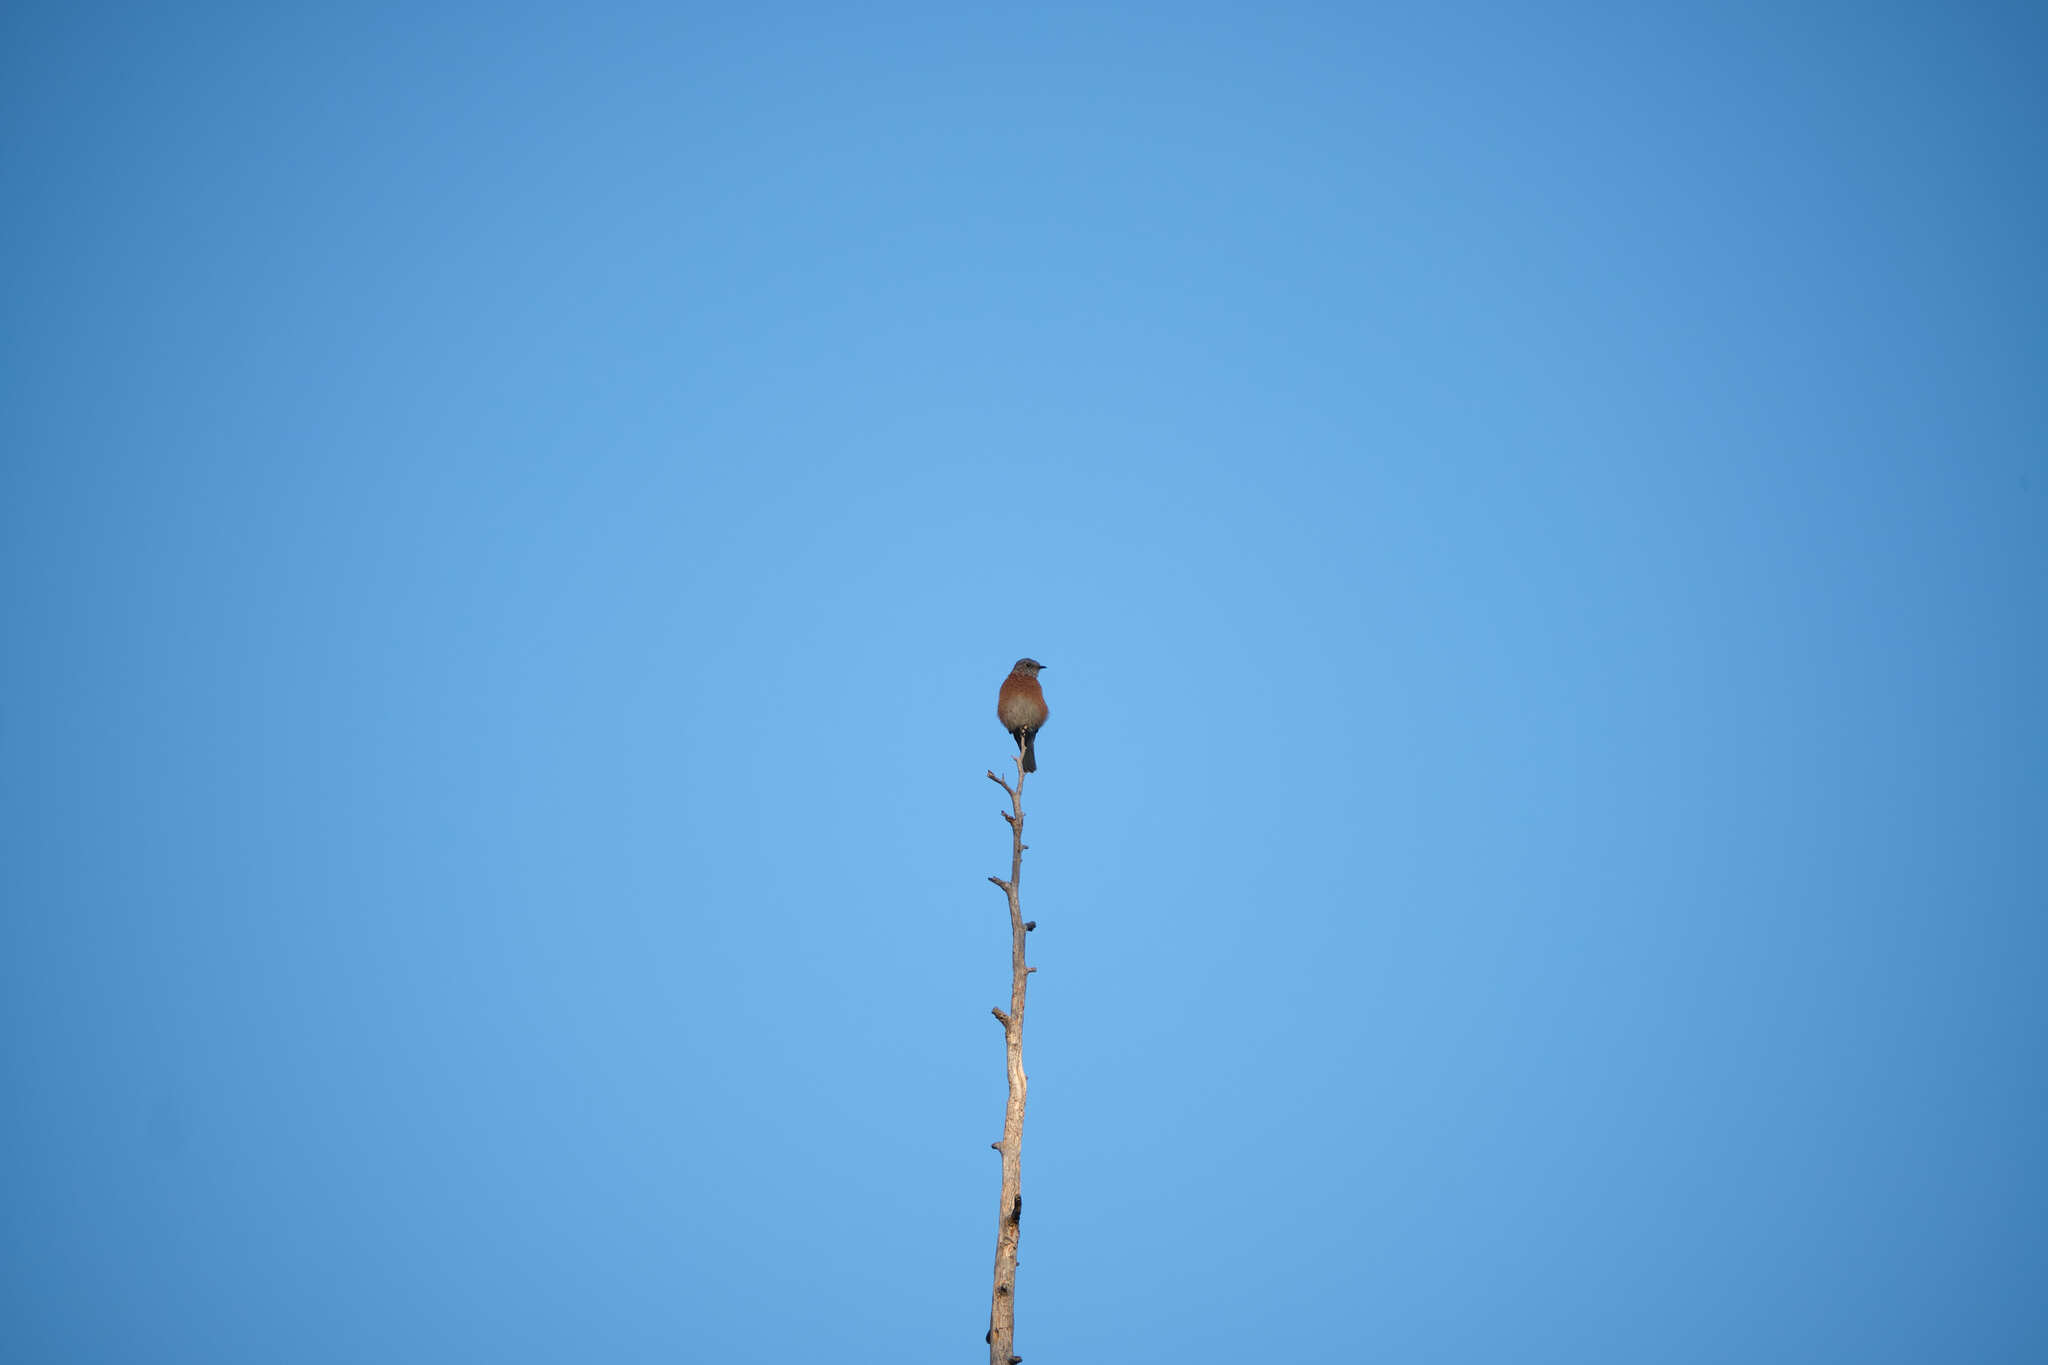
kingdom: Animalia
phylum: Chordata
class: Aves
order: Passeriformes
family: Turdidae
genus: Sialia
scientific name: Sialia mexicana
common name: Western bluebird
